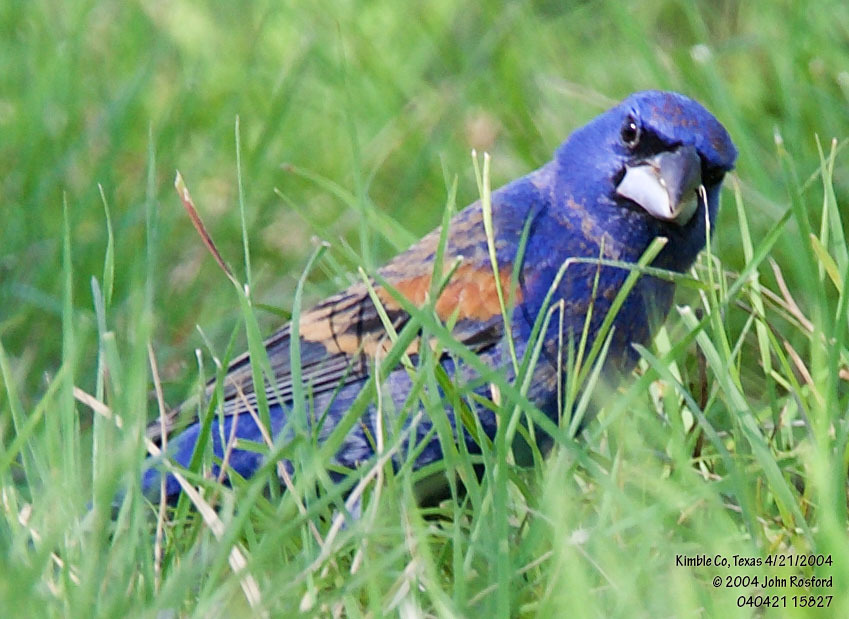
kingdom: Animalia
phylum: Chordata
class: Aves
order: Passeriformes
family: Cardinalidae
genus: Passerina
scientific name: Passerina caerulea
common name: Blue grosbeak
